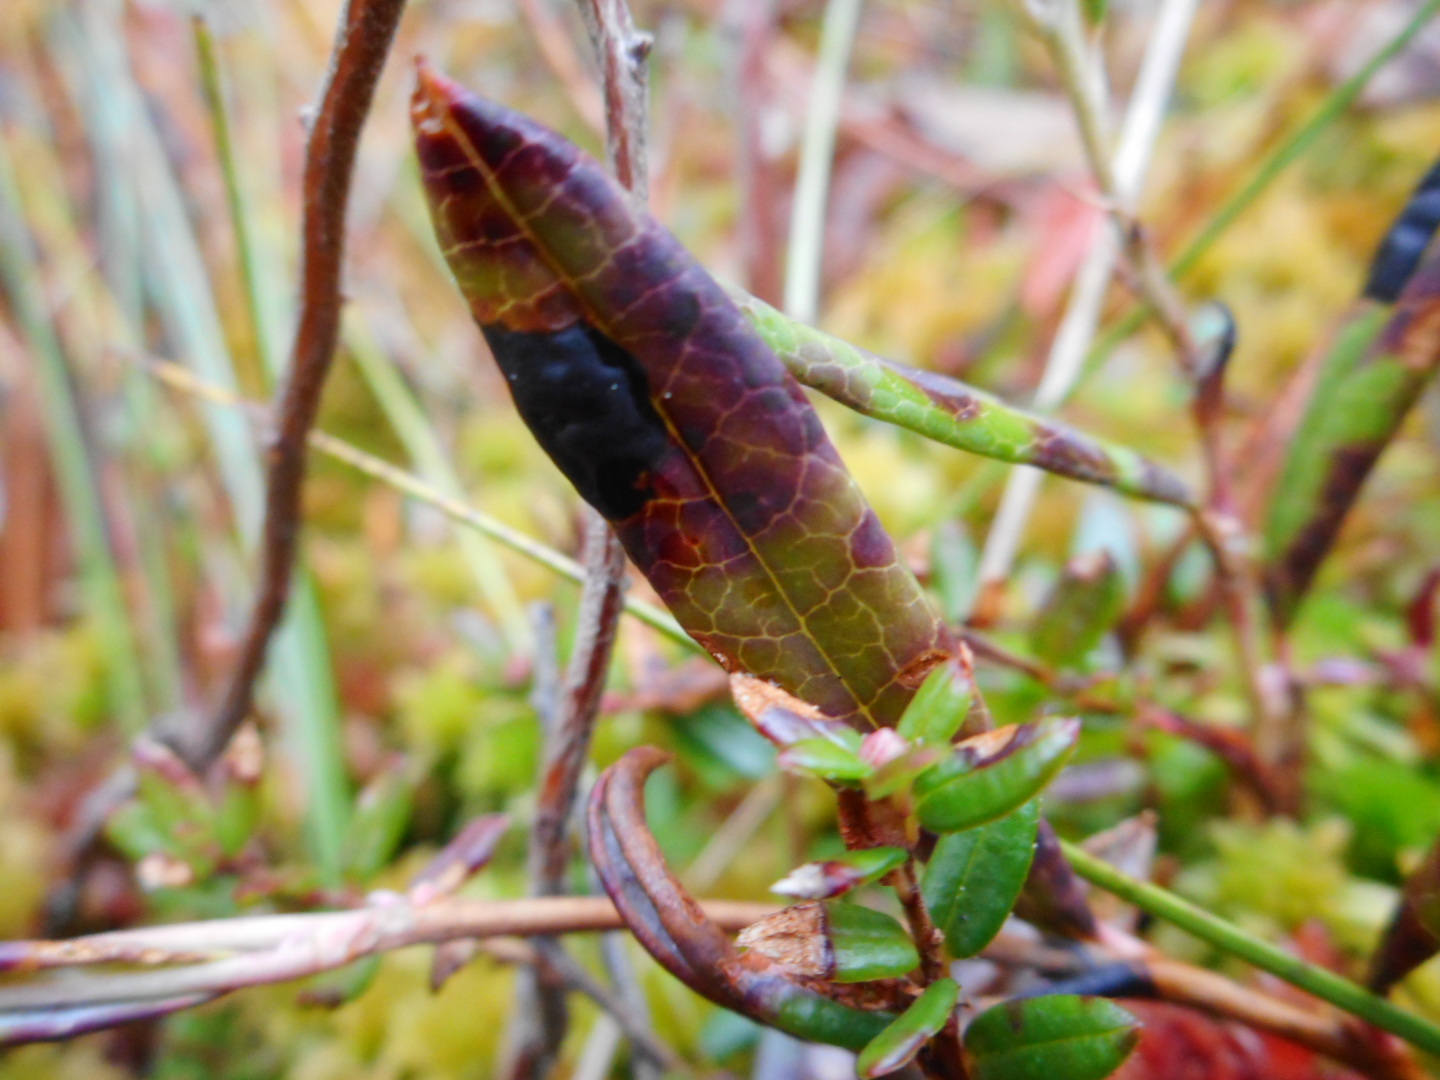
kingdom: Fungi
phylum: Ascomycota
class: Leotiomycetes
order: Rhytismatales
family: Rhytismataceae
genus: Rhytisma
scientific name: Rhytisma andromedae
